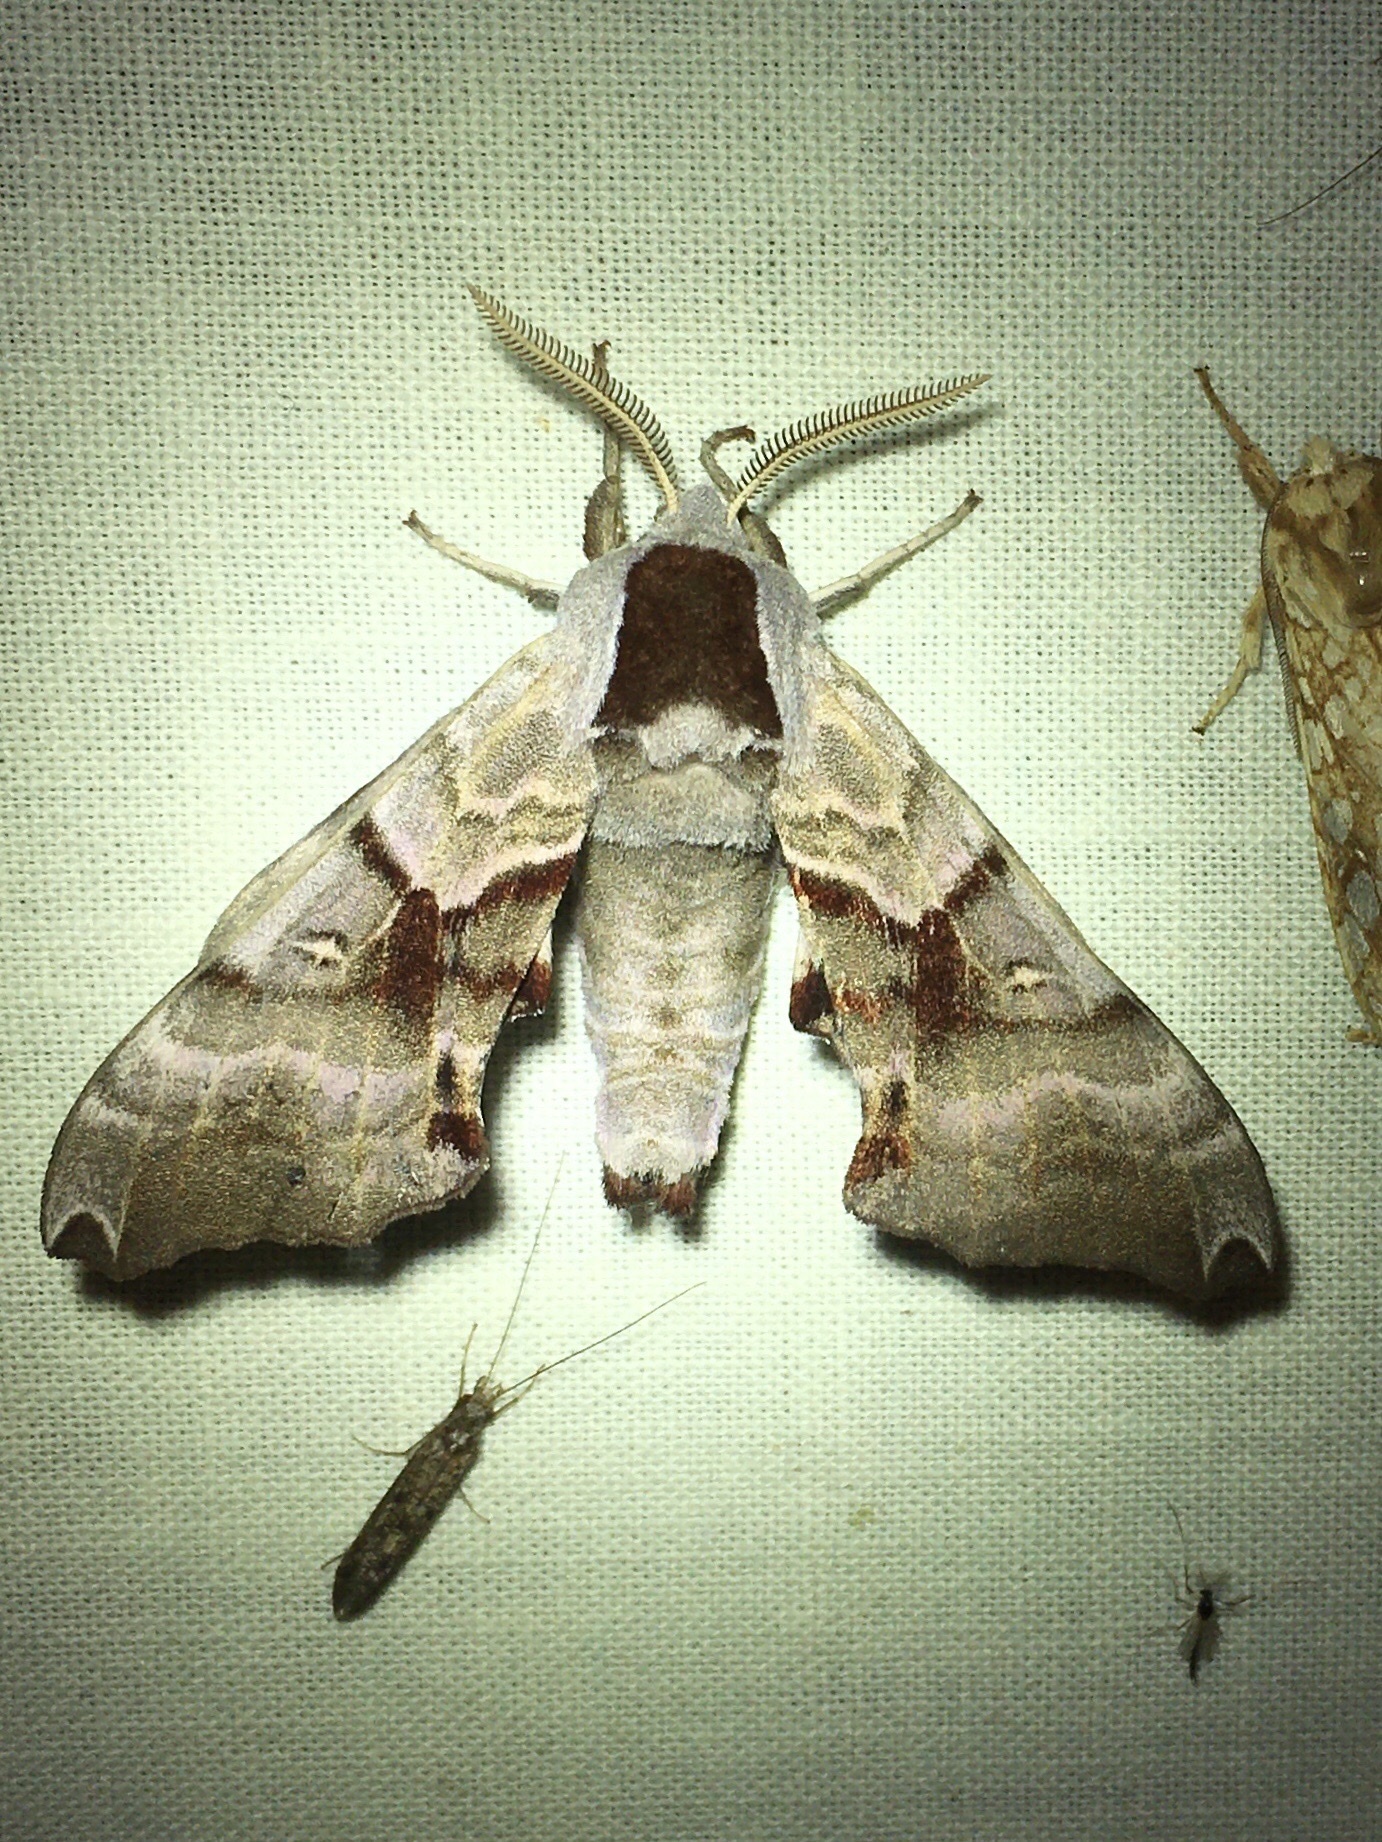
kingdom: Animalia
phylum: Arthropoda
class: Insecta
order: Lepidoptera
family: Sphingidae
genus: Smerinthus
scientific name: Smerinthus jamaicensis
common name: Twin spotted sphinx
